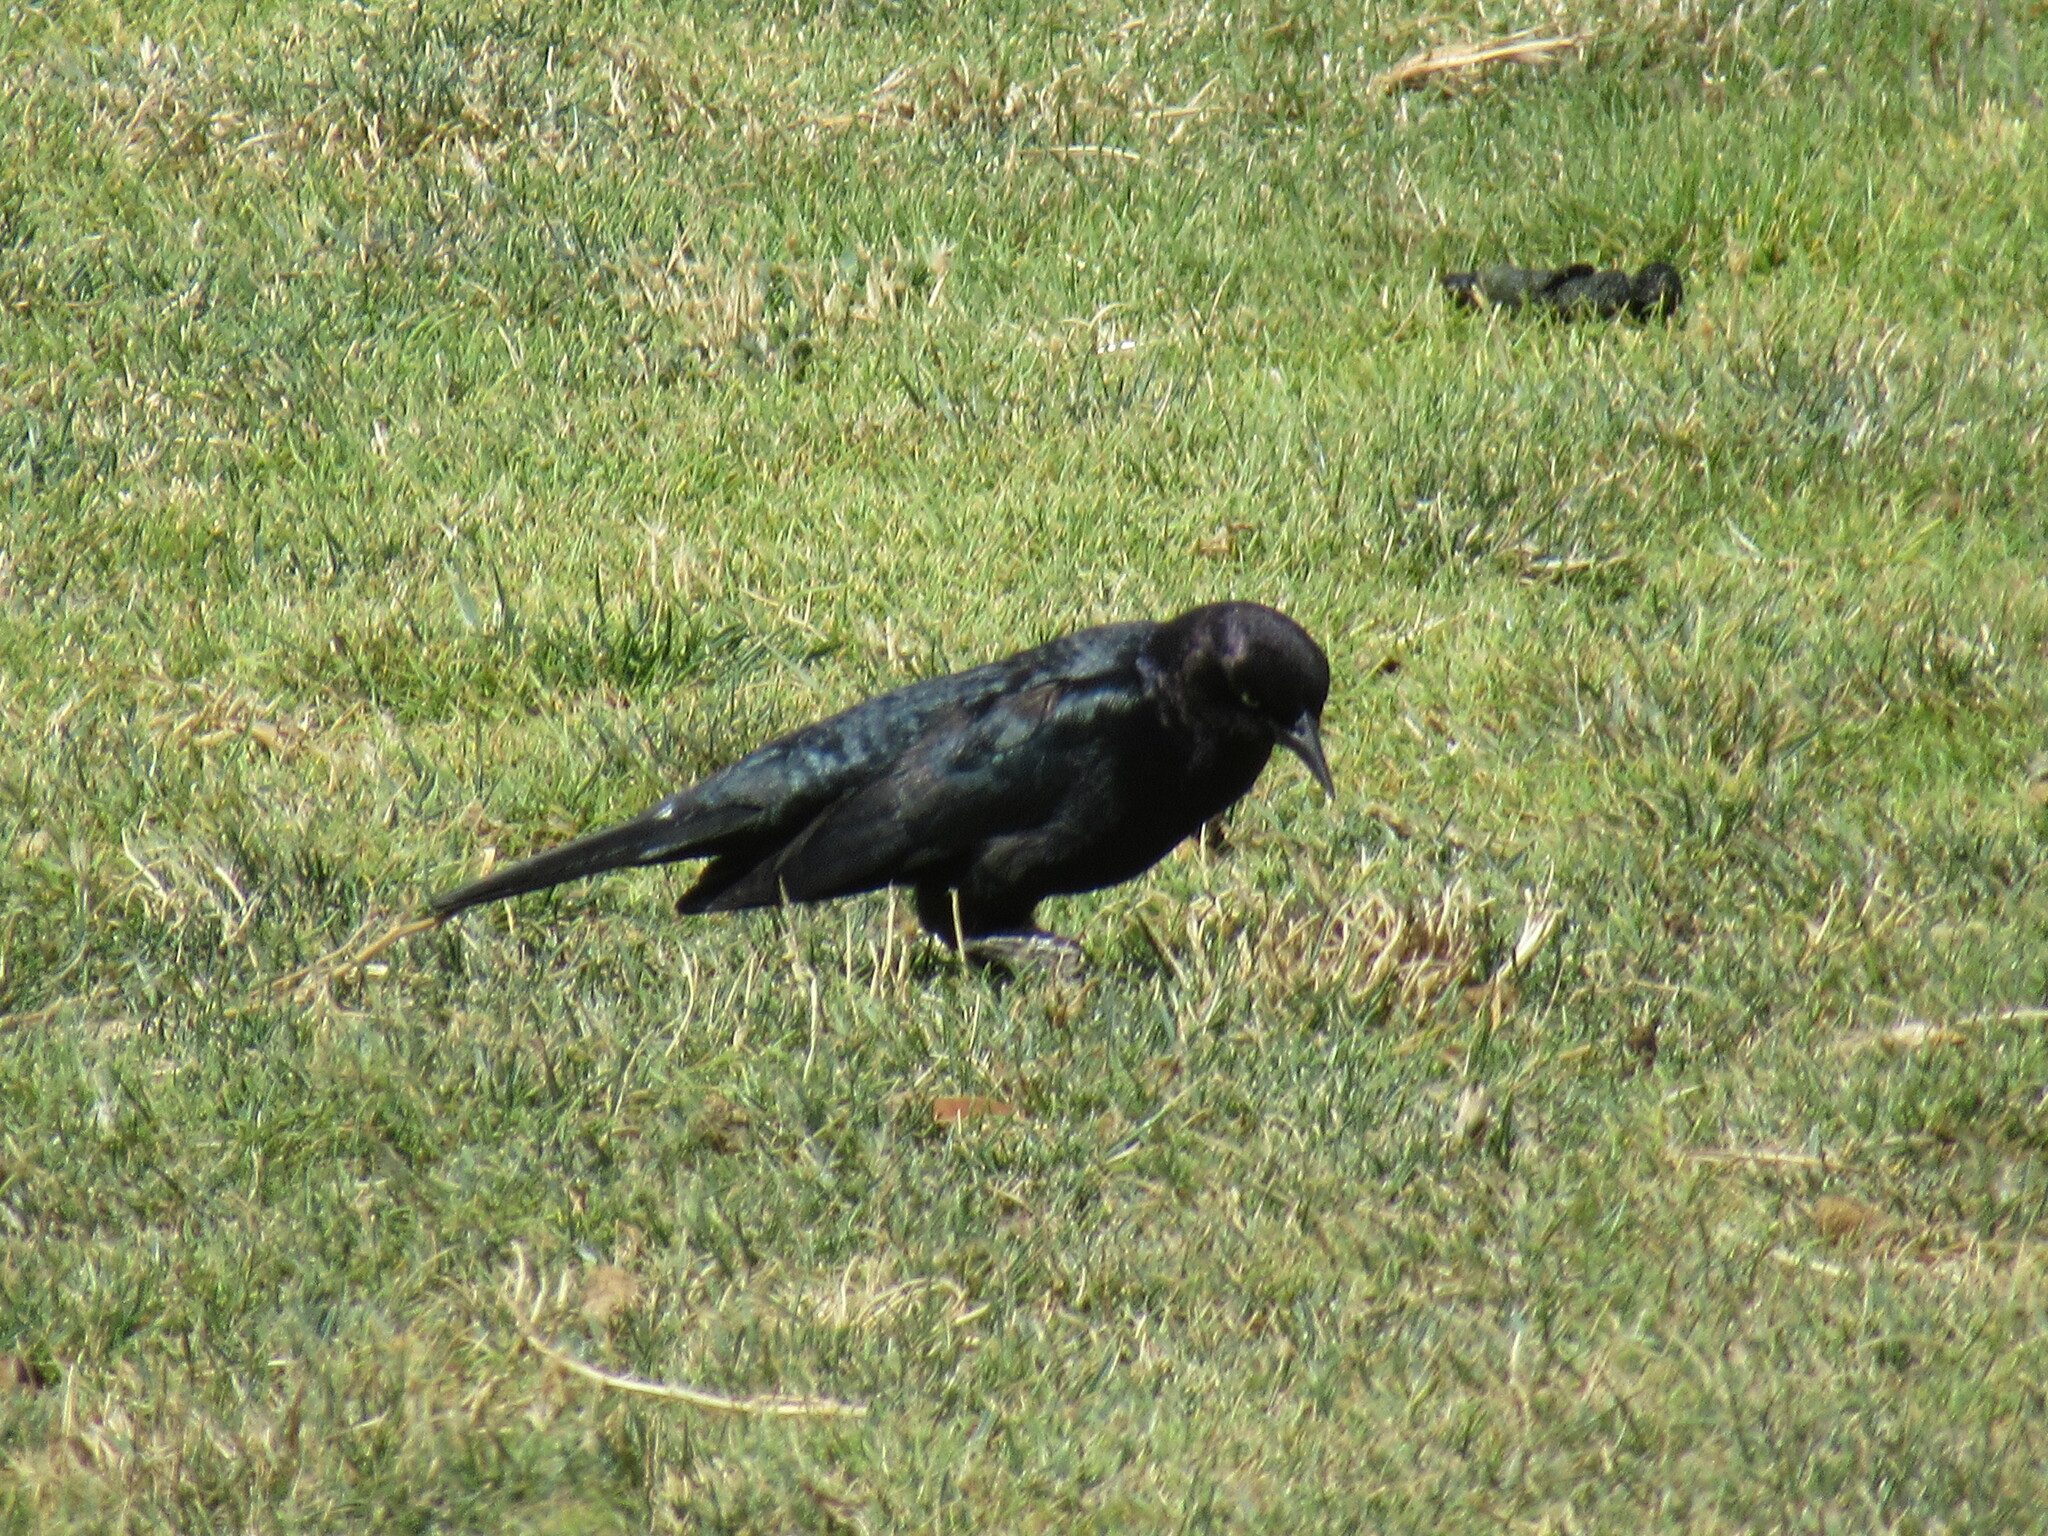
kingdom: Animalia
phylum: Chordata
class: Aves
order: Passeriformes
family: Icteridae
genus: Euphagus
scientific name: Euphagus cyanocephalus
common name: Brewer's blackbird
